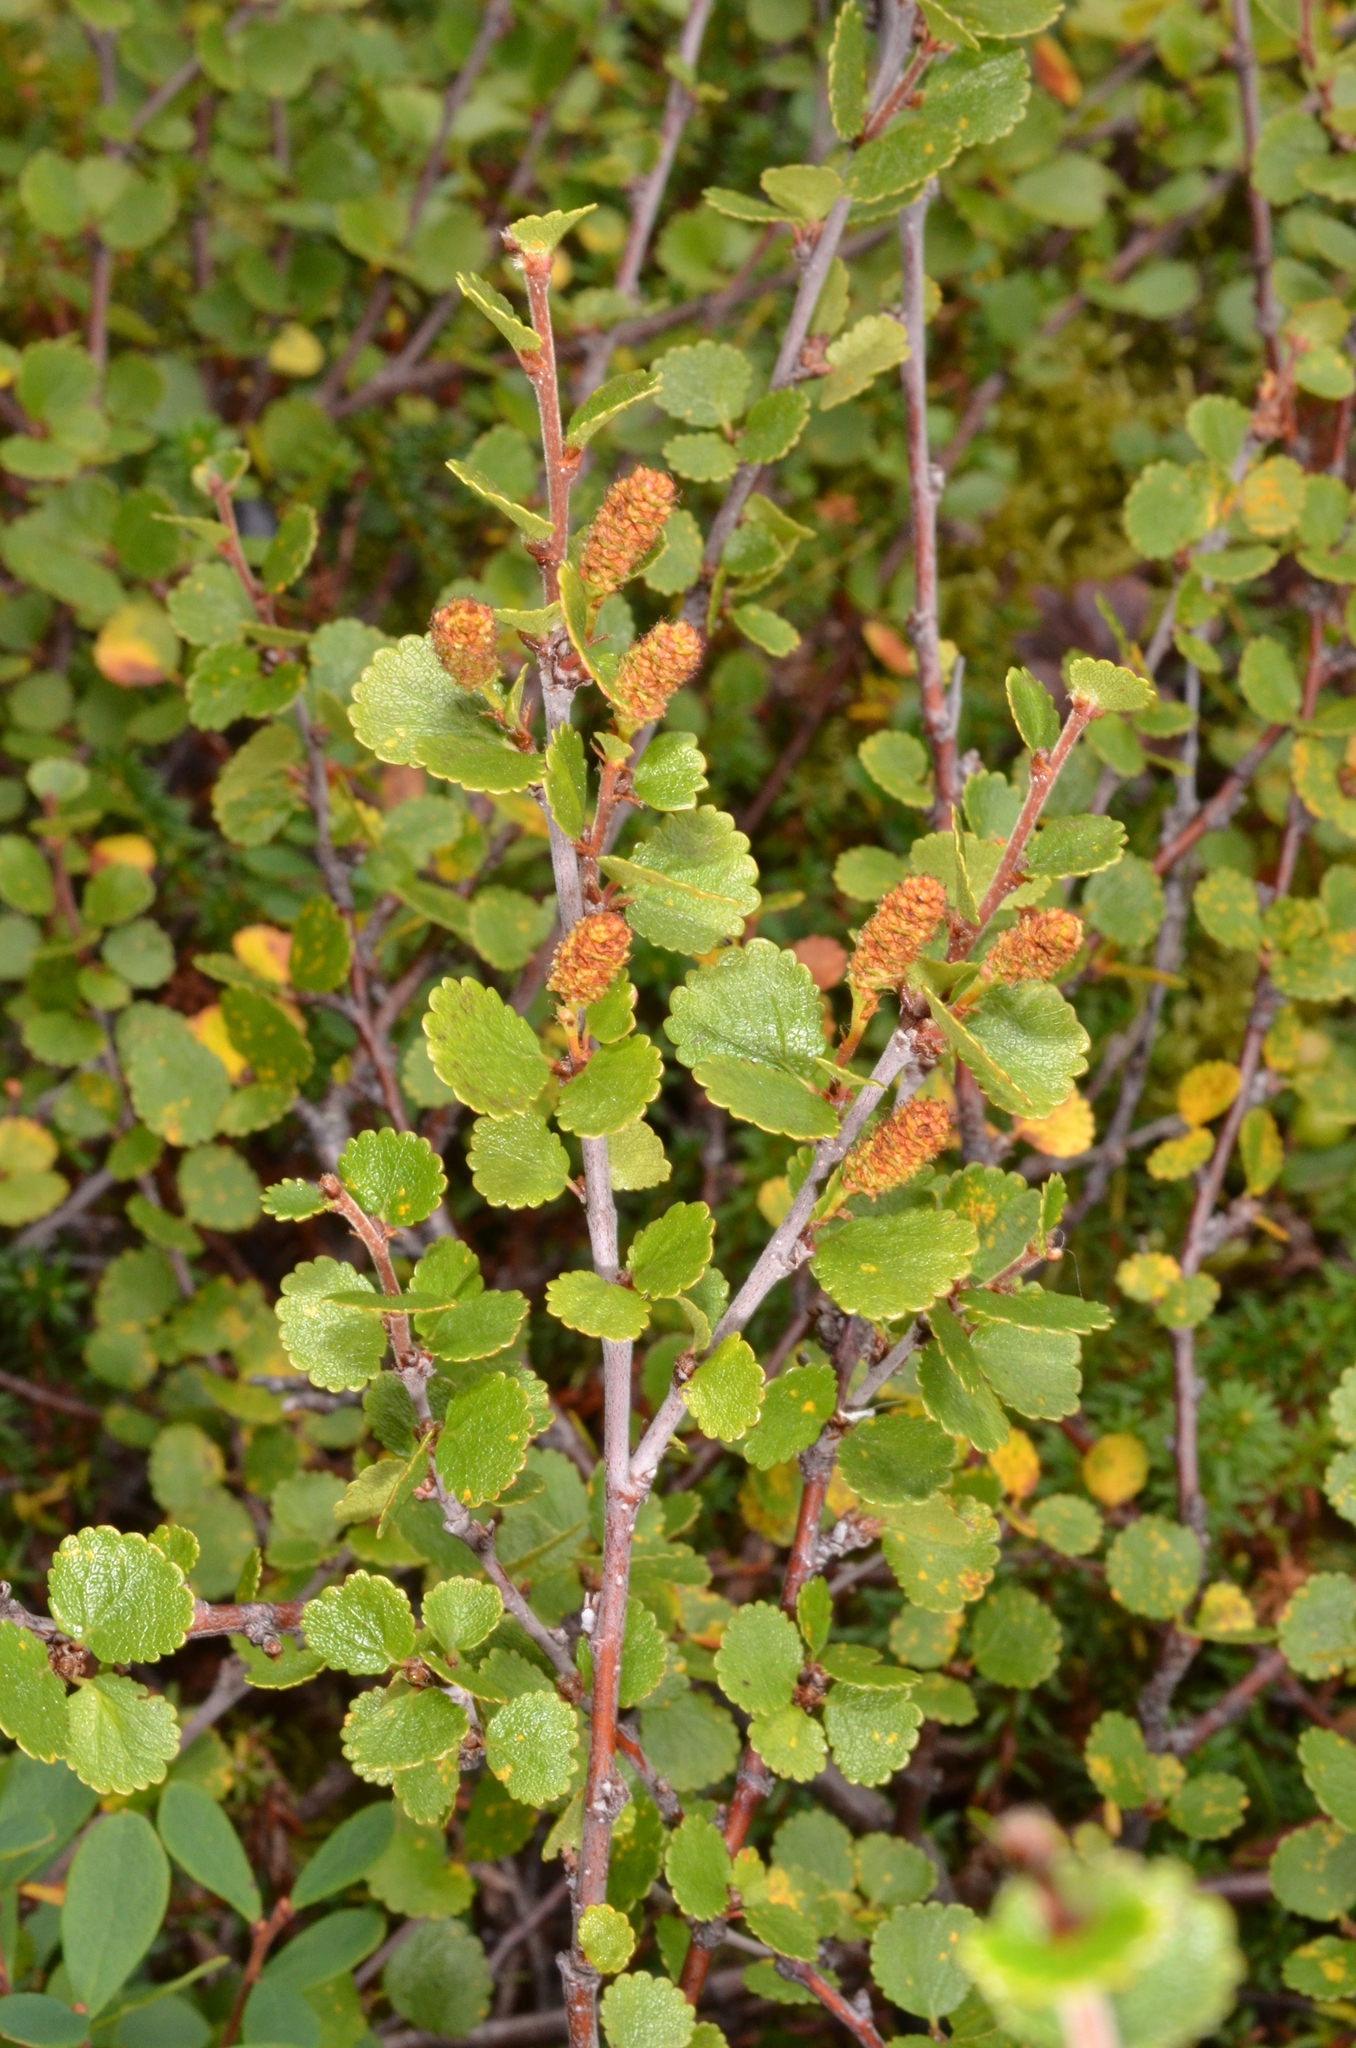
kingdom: Plantae
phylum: Tracheophyta
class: Magnoliopsida
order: Fagales
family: Betulaceae
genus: Betula
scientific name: Betula nana
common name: Arctic dwarf birch
